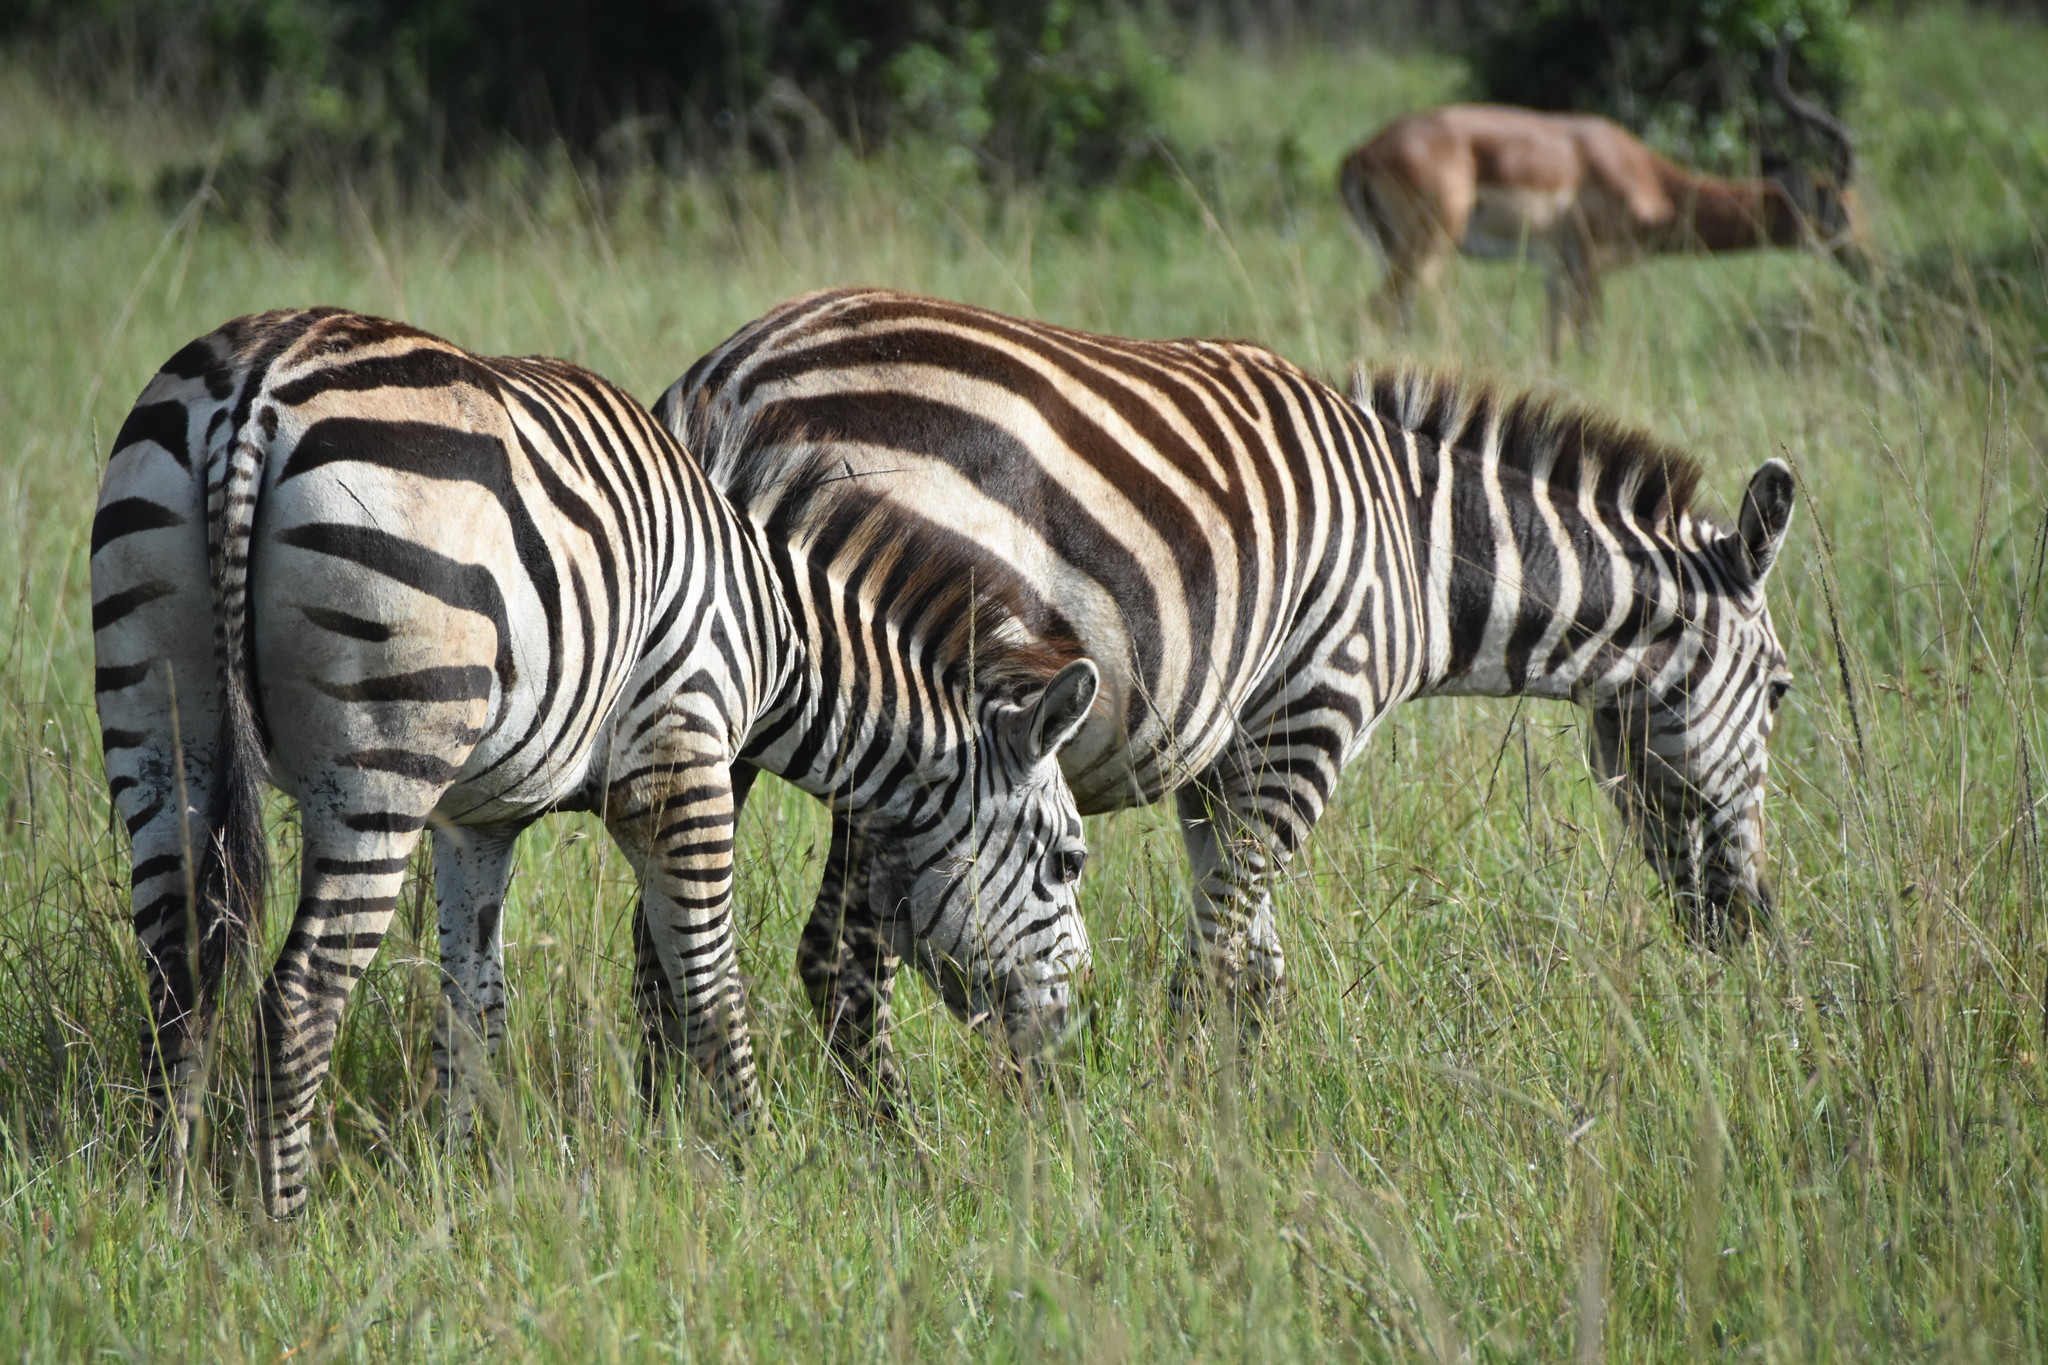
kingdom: Animalia
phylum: Chordata
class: Mammalia
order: Perissodactyla
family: Equidae
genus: Equus
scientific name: Equus quagga
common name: Plains zebra
